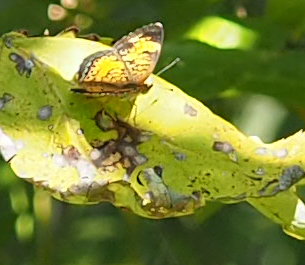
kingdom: Animalia
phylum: Arthropoda
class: Insecta
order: Lepidoptera
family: Nymphalidae
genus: Phyciodes
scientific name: Phyciodes tharos
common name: Pearl crescent
